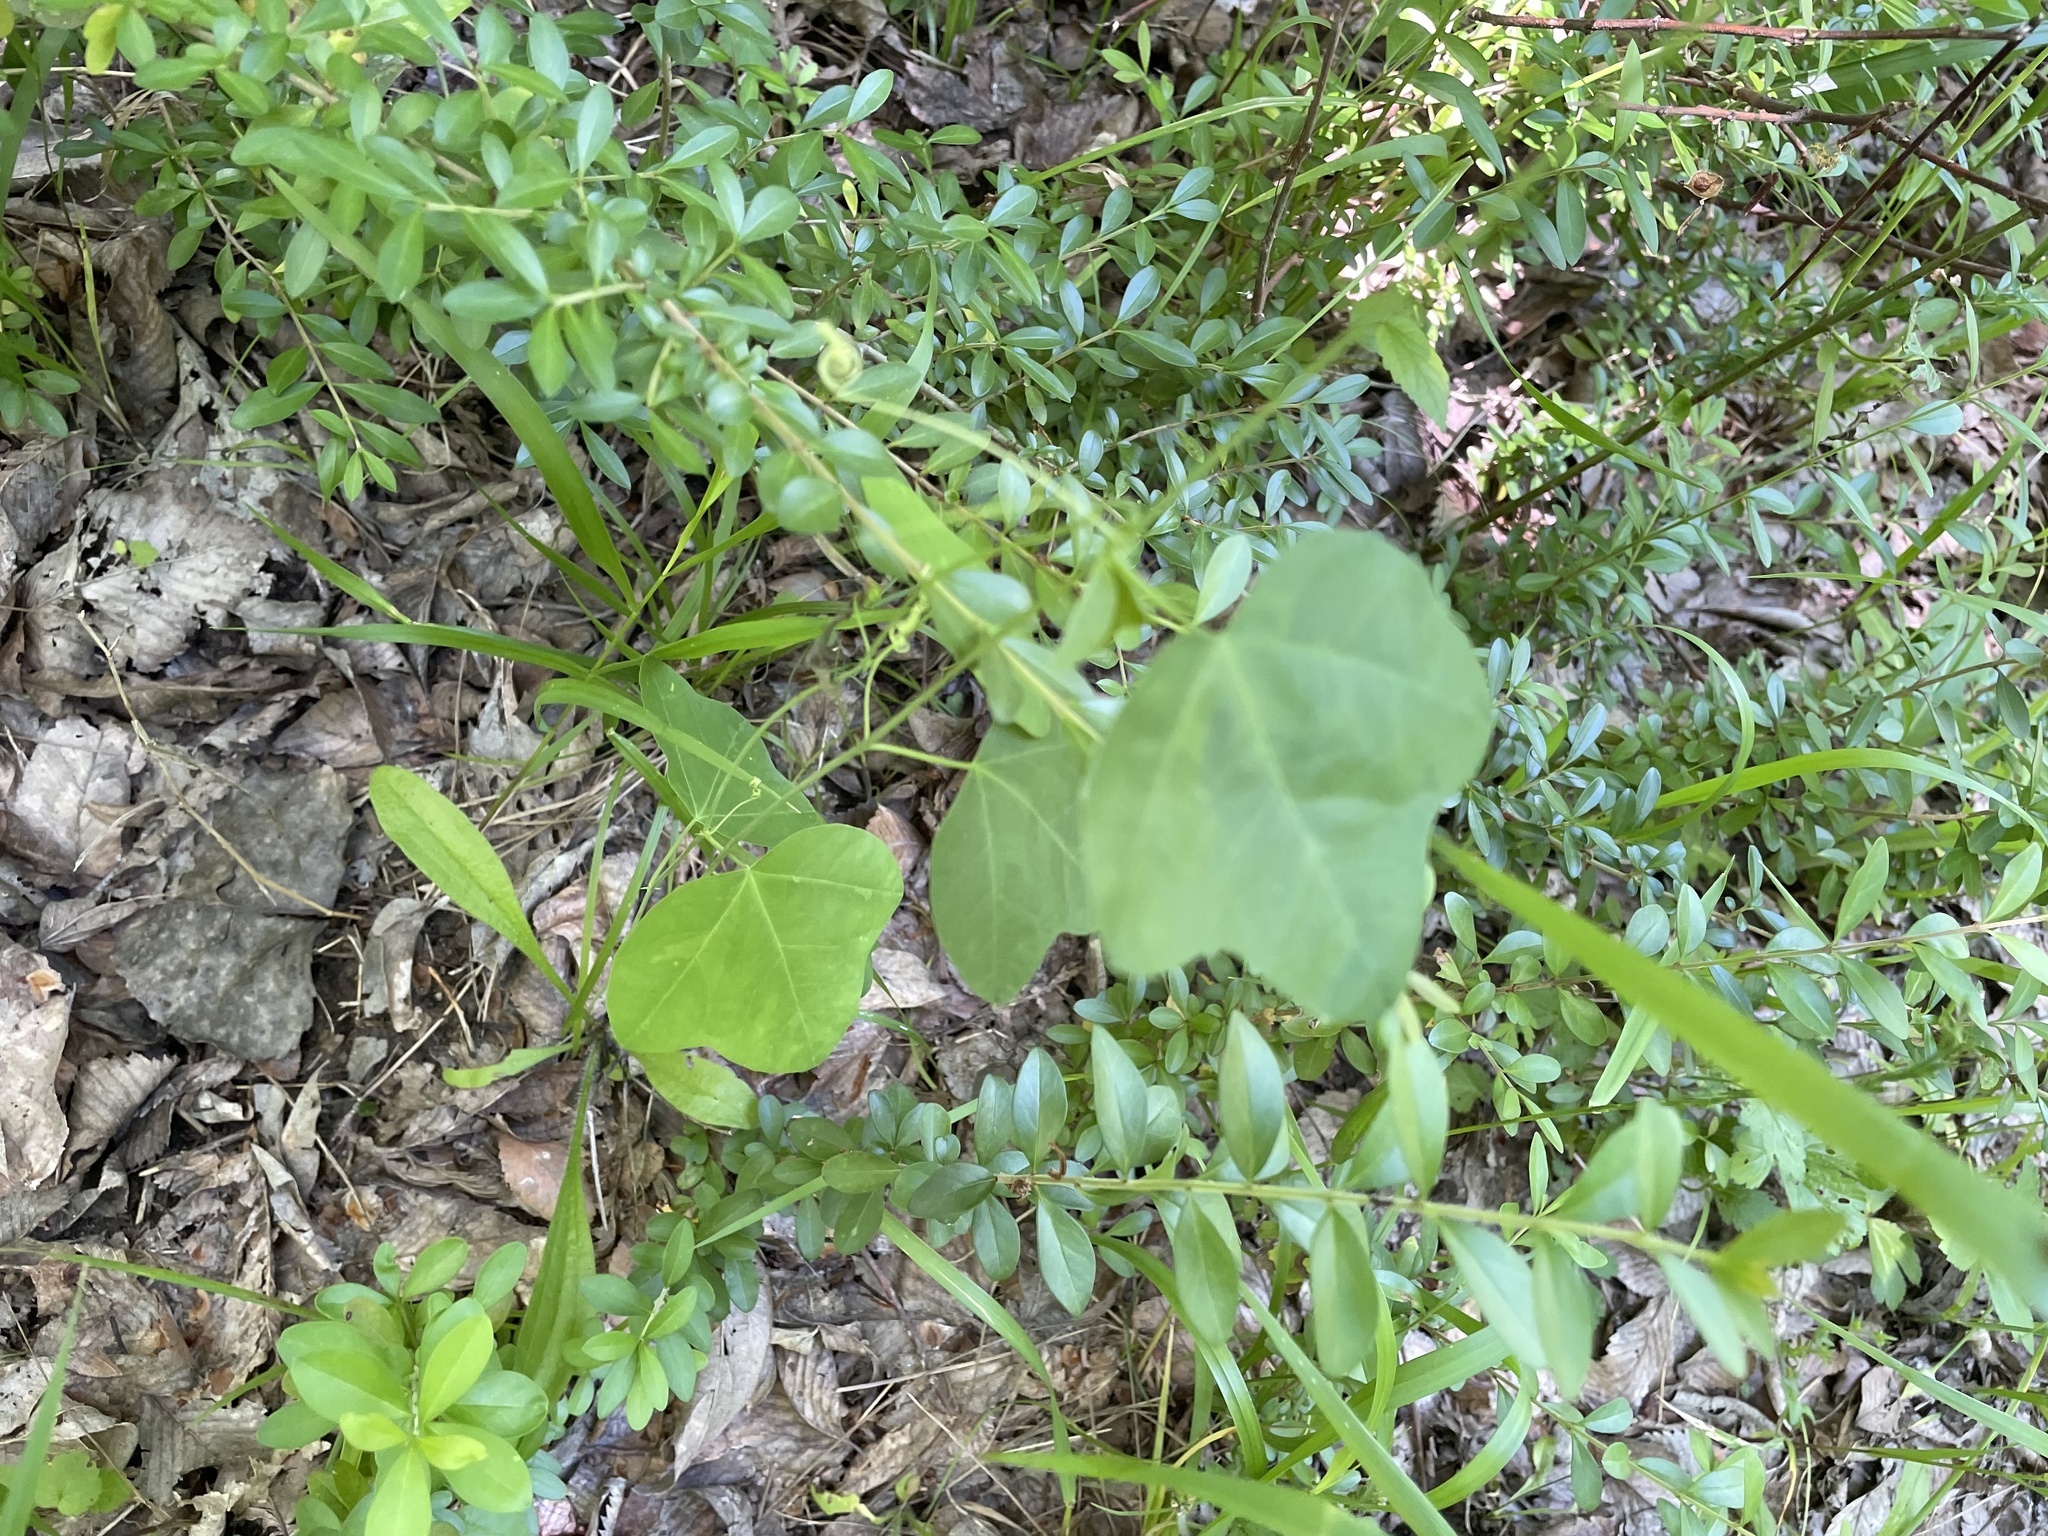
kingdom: Plantae
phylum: Tracheophyta
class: Magnoliopsida
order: Malpighiales
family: Passifloraceae
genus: Passiflora
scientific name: Passiflora lutea
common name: Yellow passionflower
